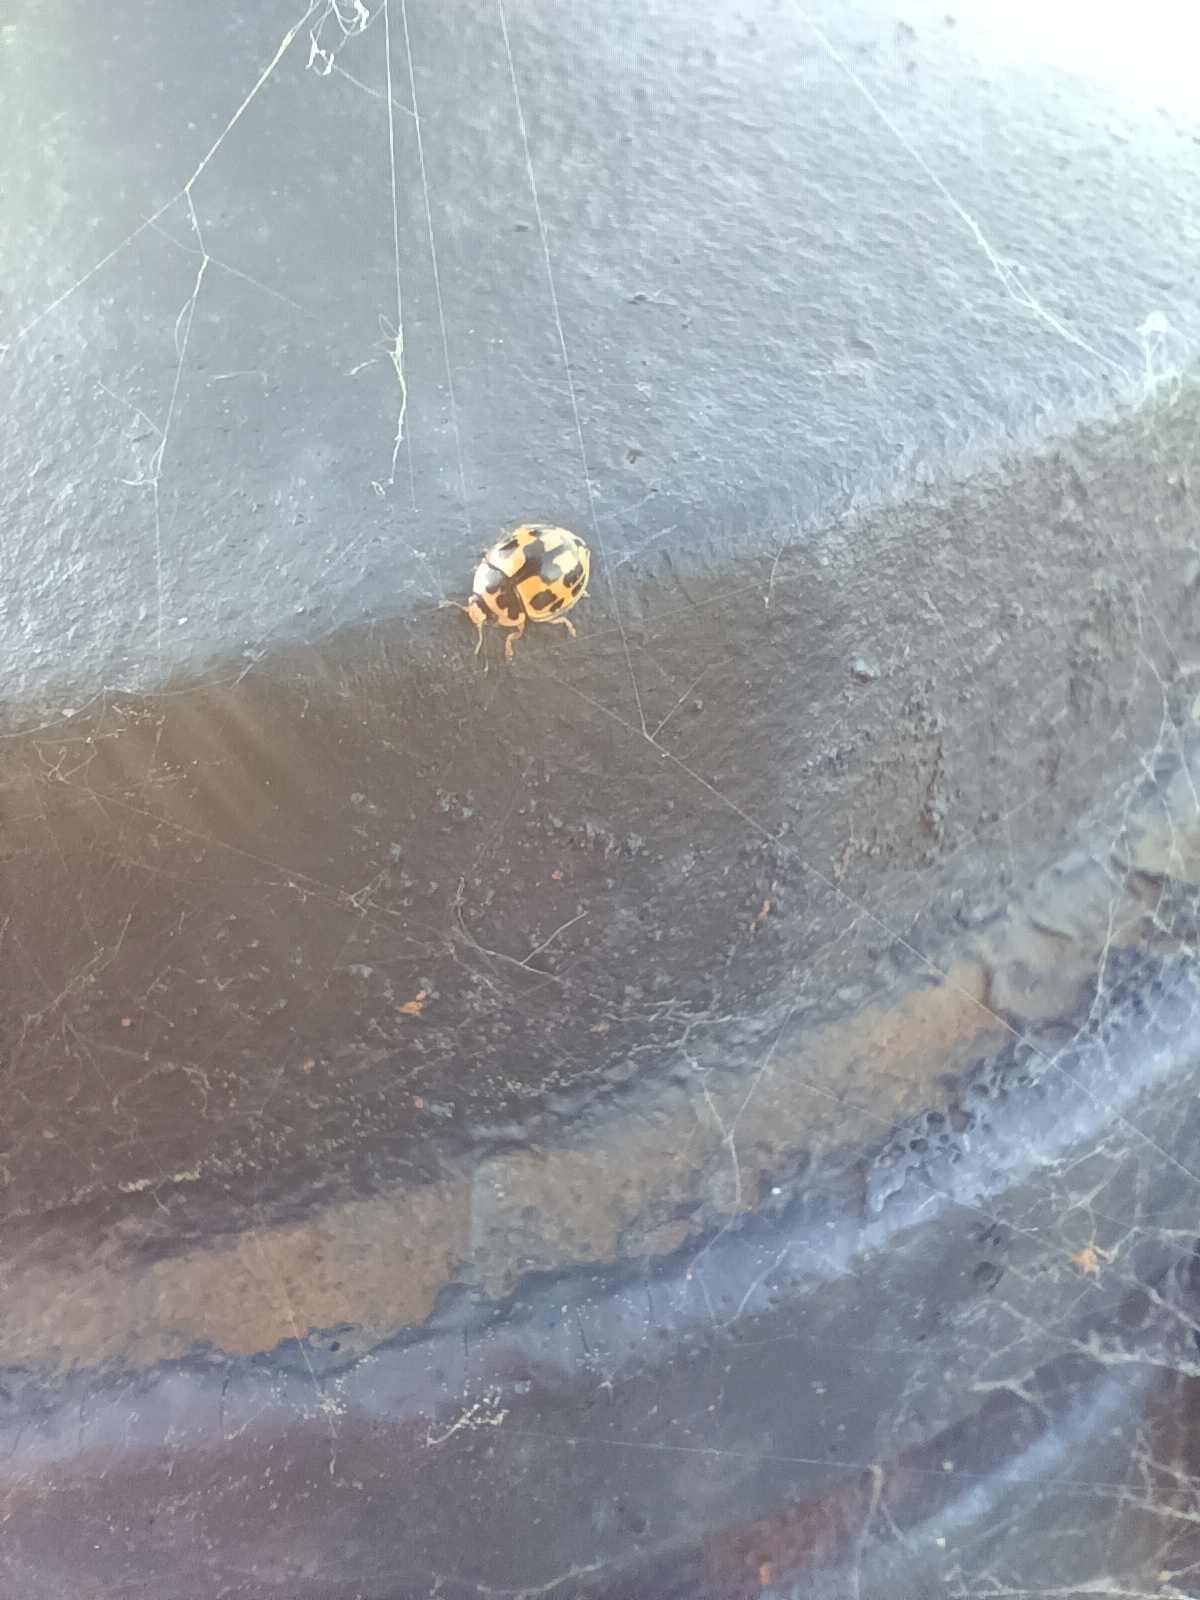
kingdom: Animalia
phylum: Arthropoda
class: Insecta
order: Coleoptera
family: Coccinellidae
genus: Propylaea
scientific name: Propylaea quatuordecimpunctata
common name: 14-spotted ladybird beetle
